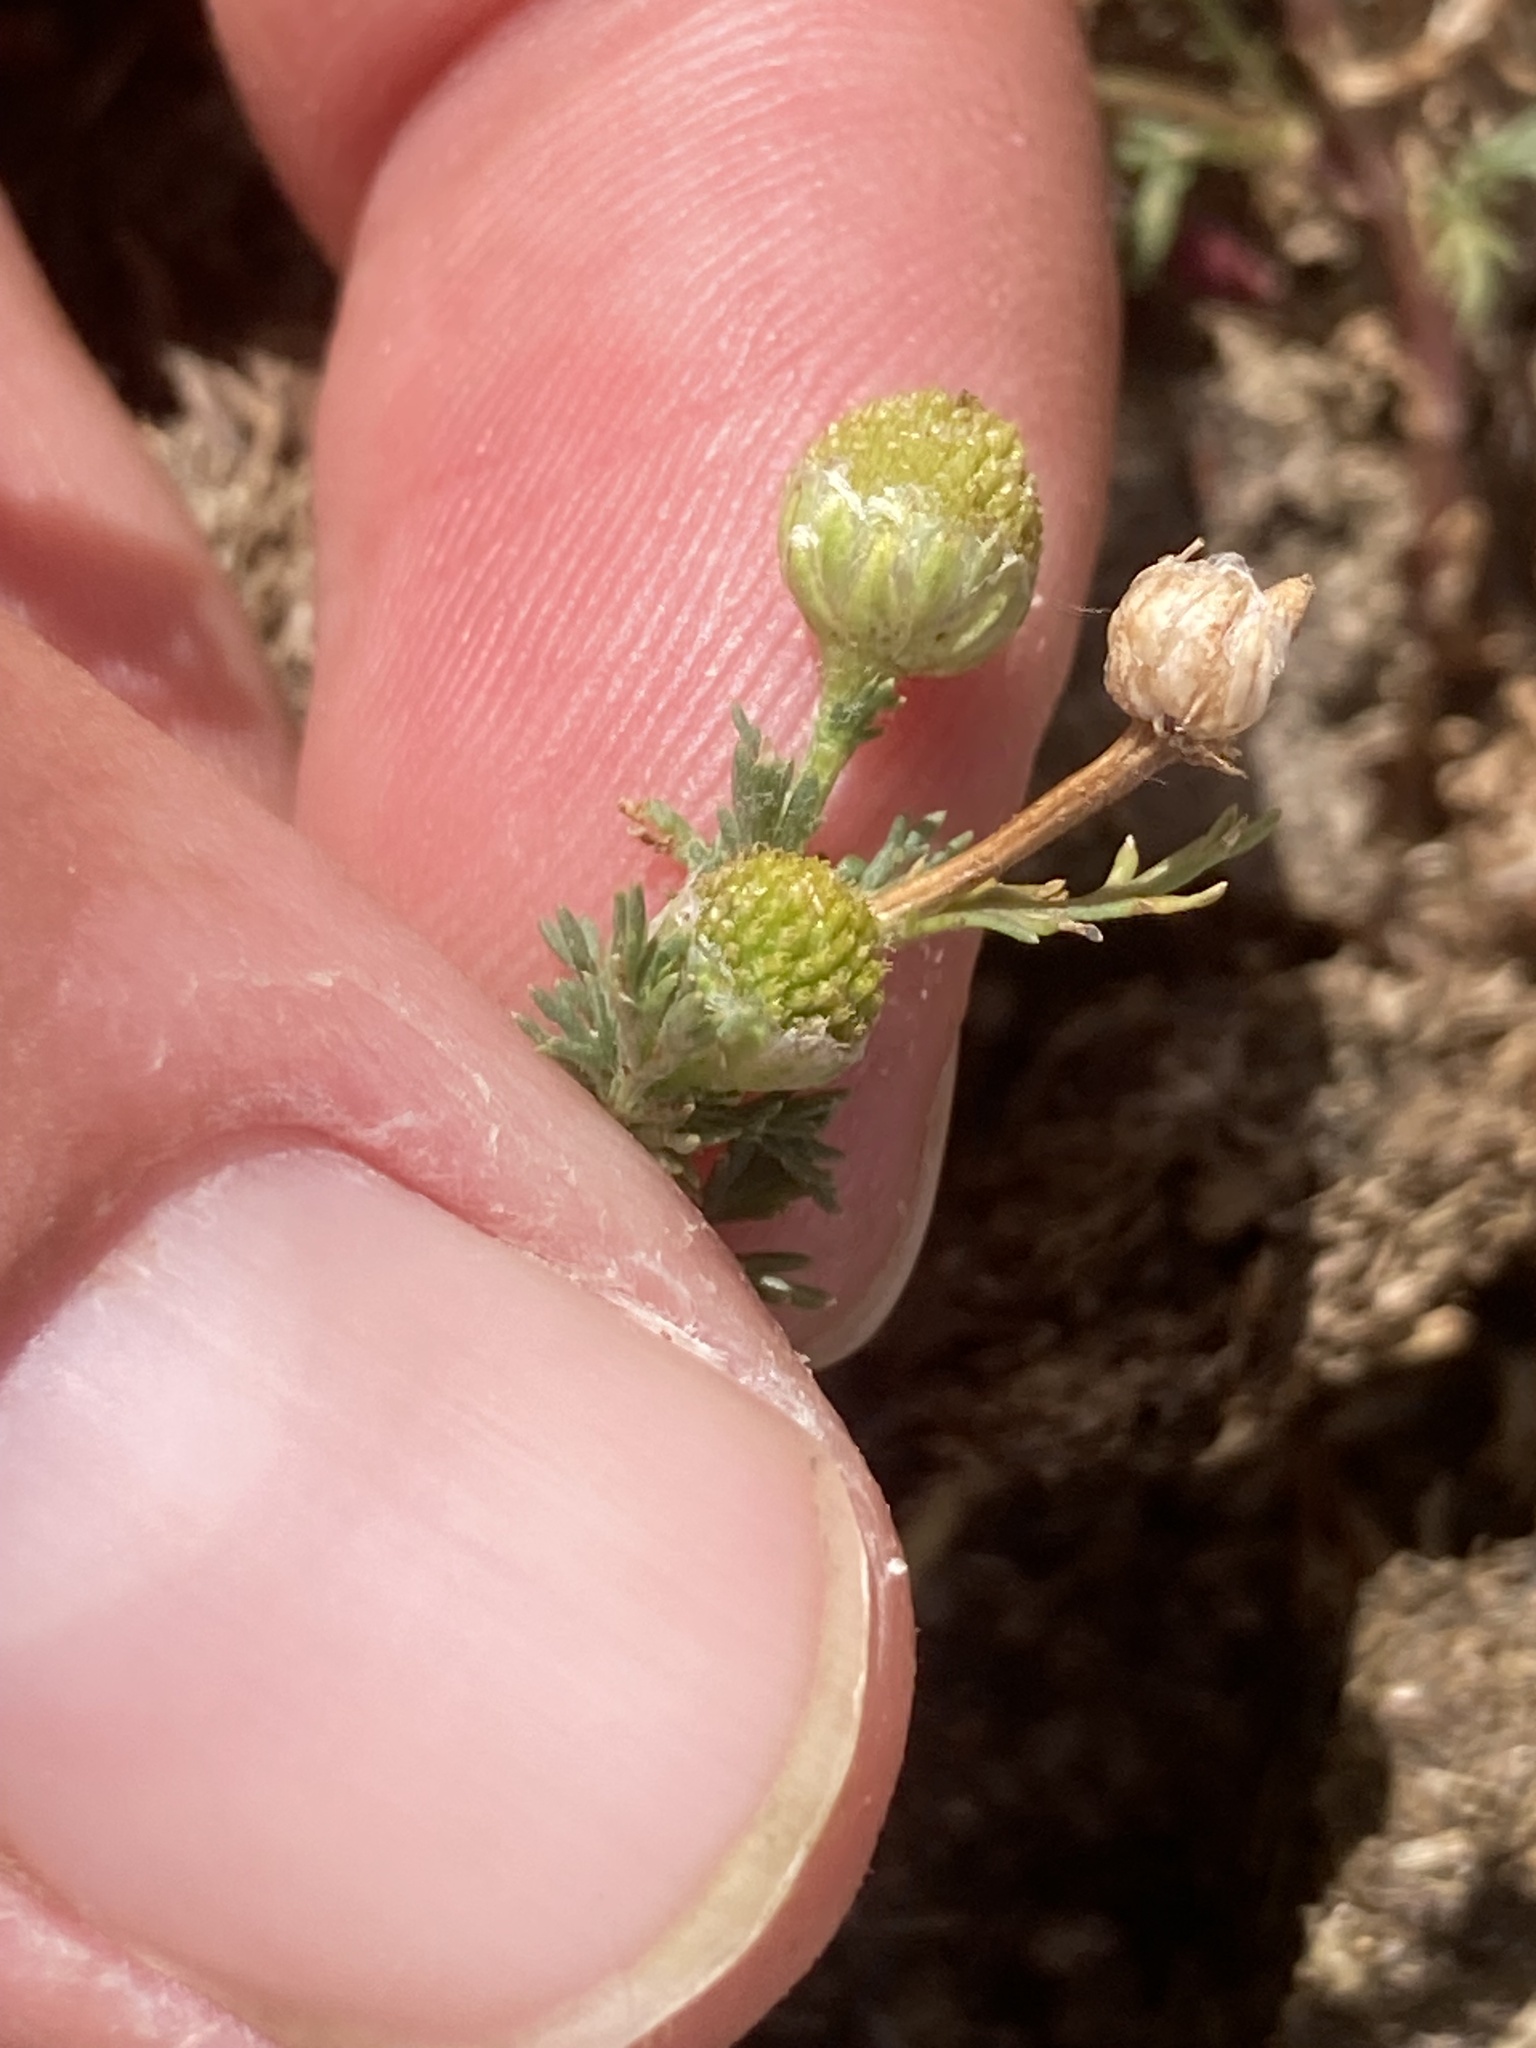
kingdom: Plantae
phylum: Tracheophyta
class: Magnoliopsida
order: Asterales
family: Asteraceae
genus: Matricaria
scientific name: Matricaria discoidea
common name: Disc mayweed
